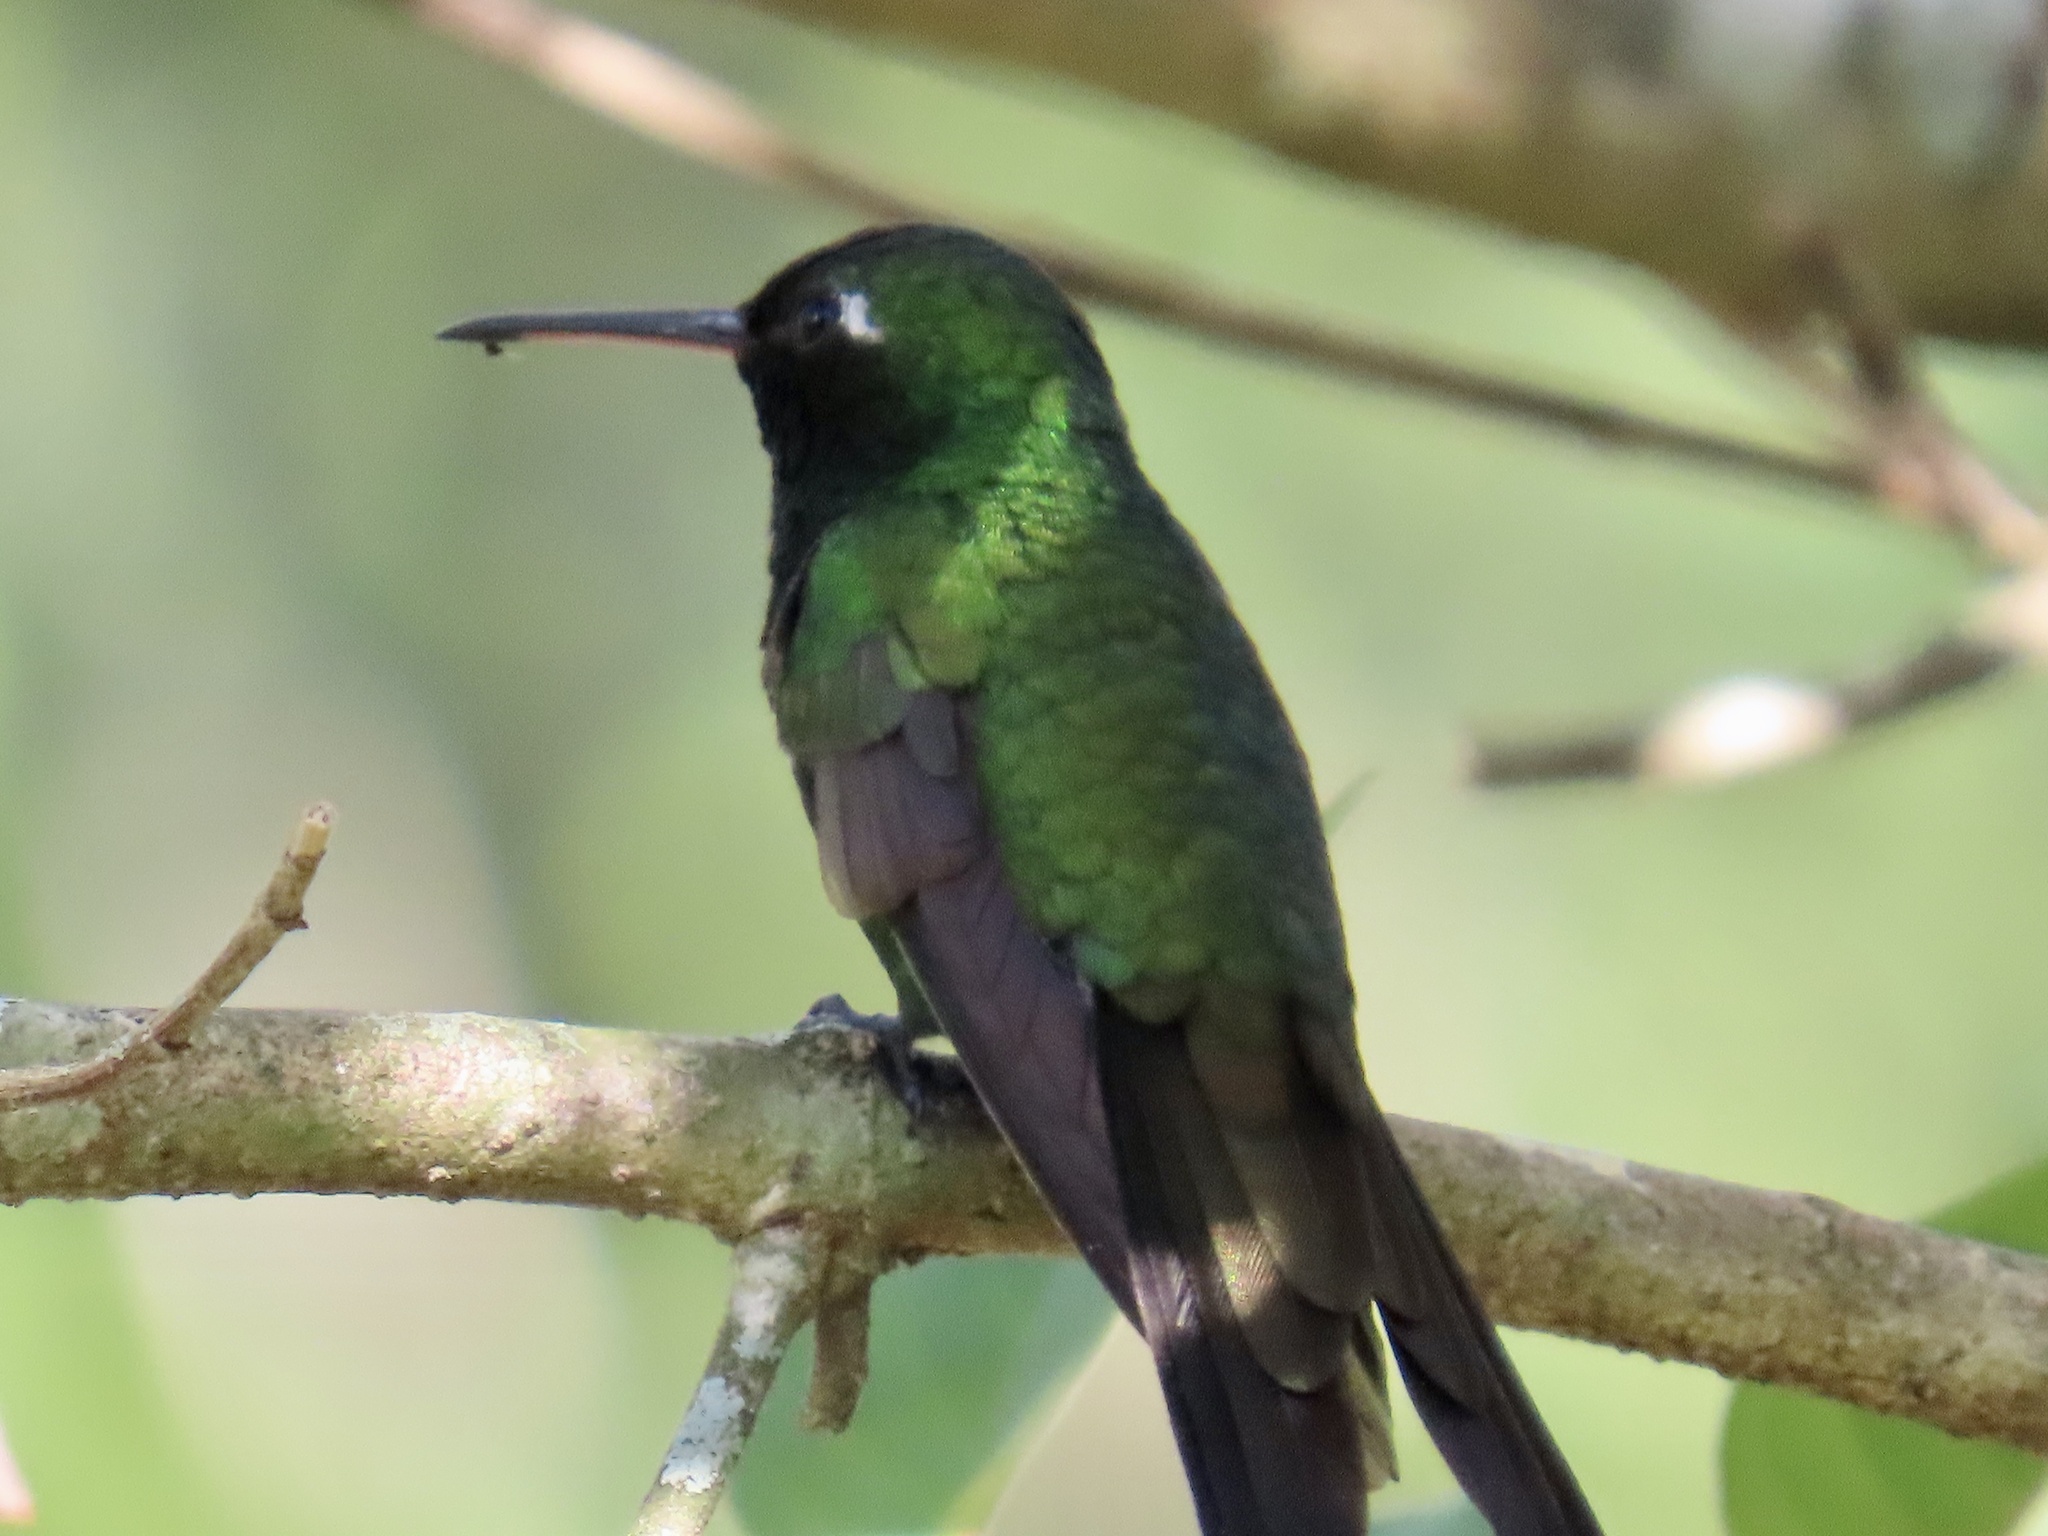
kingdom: Animalia
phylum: Chordata
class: Aves
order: Apodiformes
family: Trochilidae
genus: Riccordia
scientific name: Riccordia ricordii
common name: Cuban emerald
